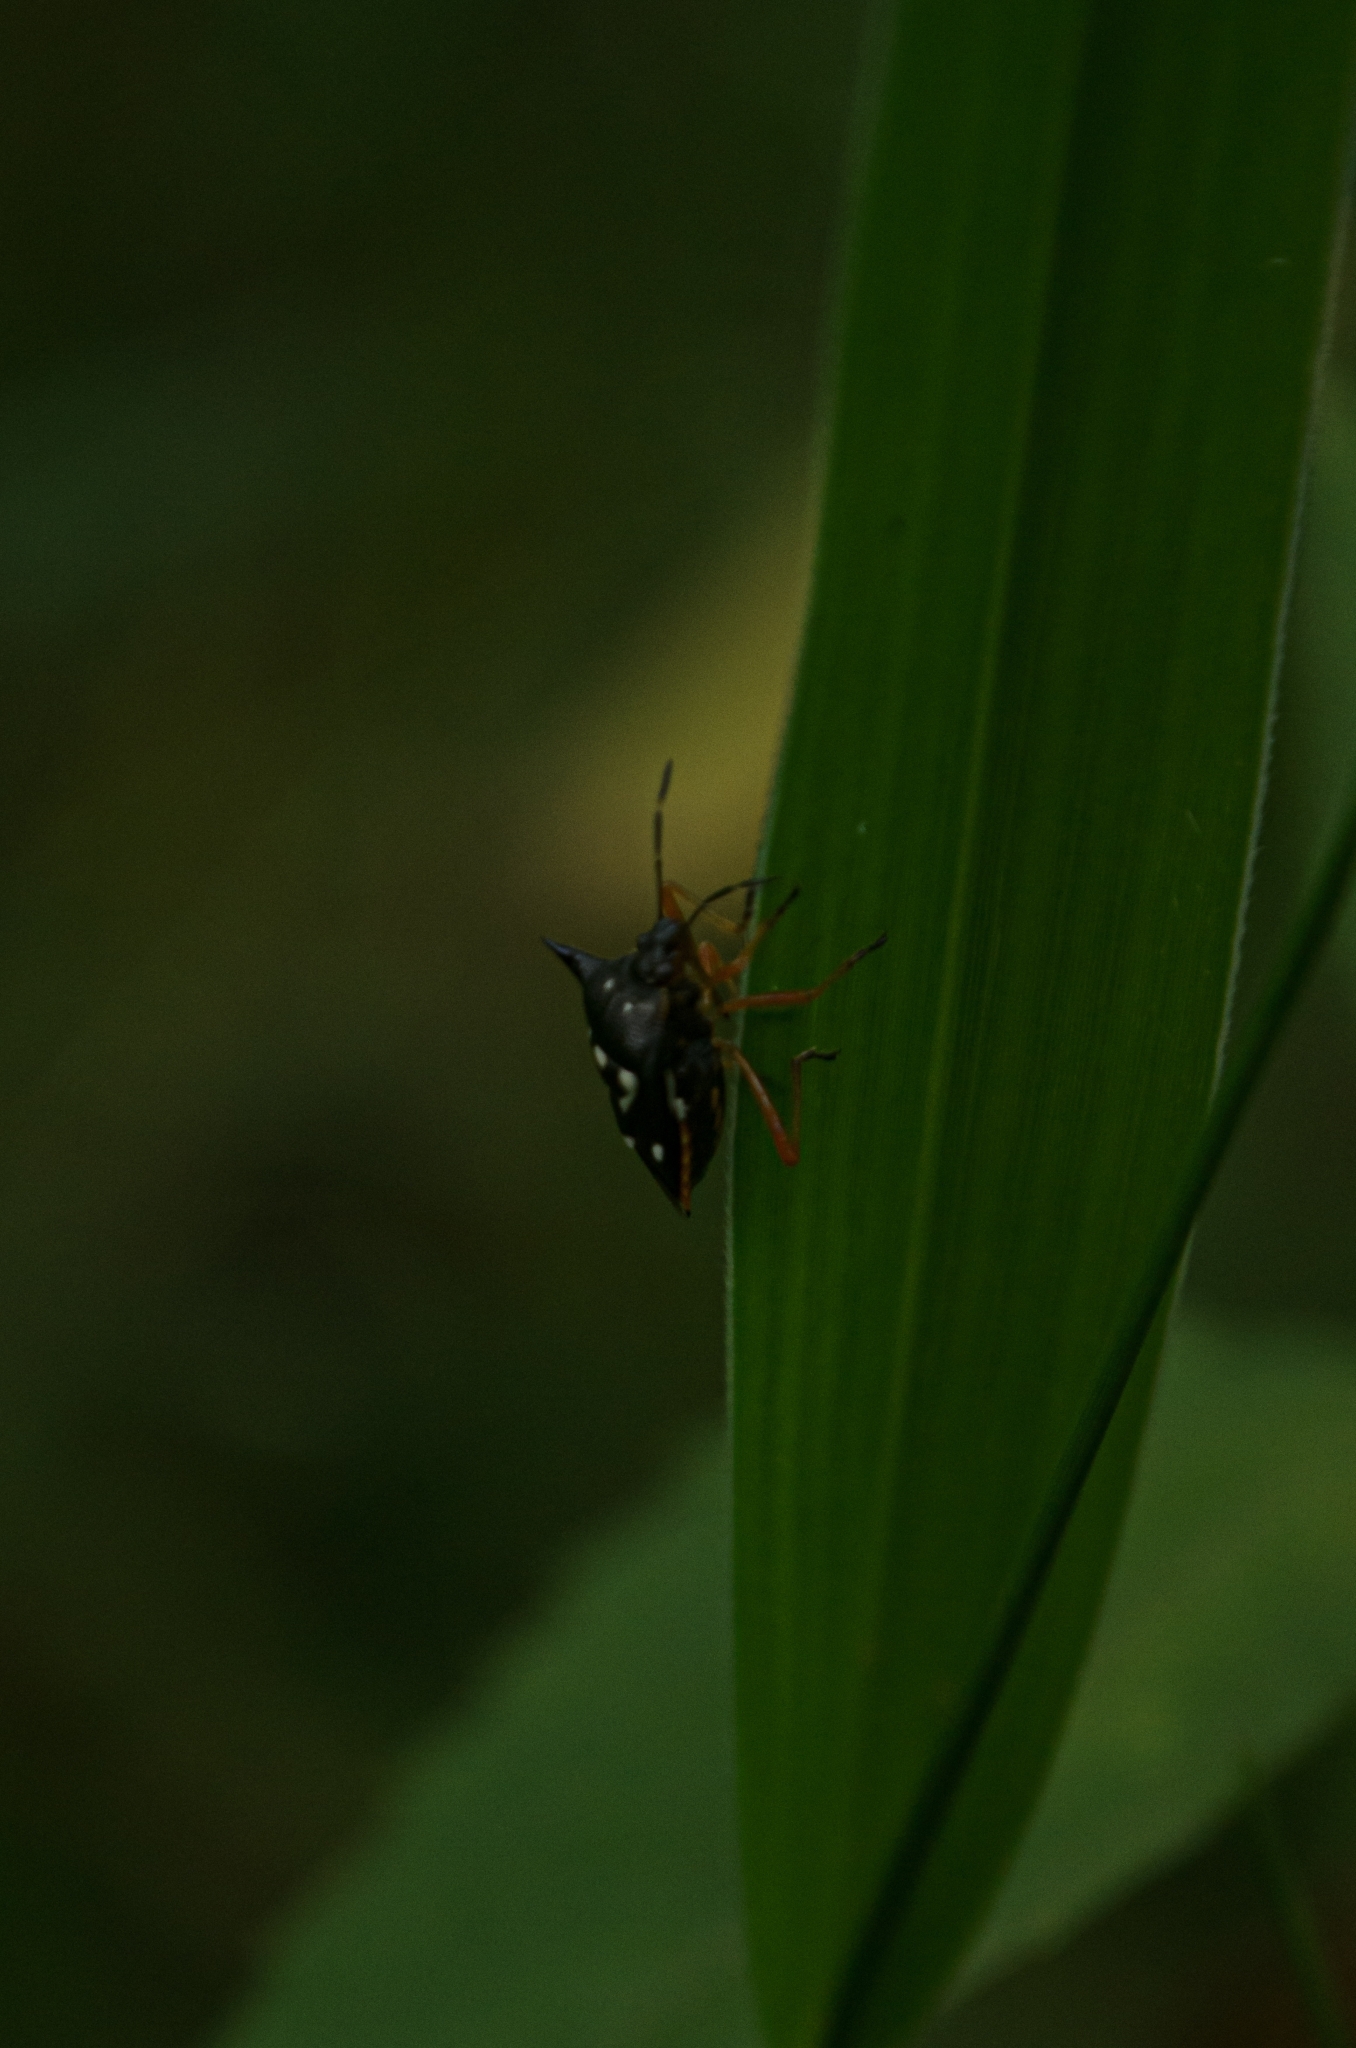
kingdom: Animalia
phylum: Arthropoda
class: Insecta
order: Hemiptera
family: Pentatomidae
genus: Mormidea
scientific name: Mormidea v-luteum
